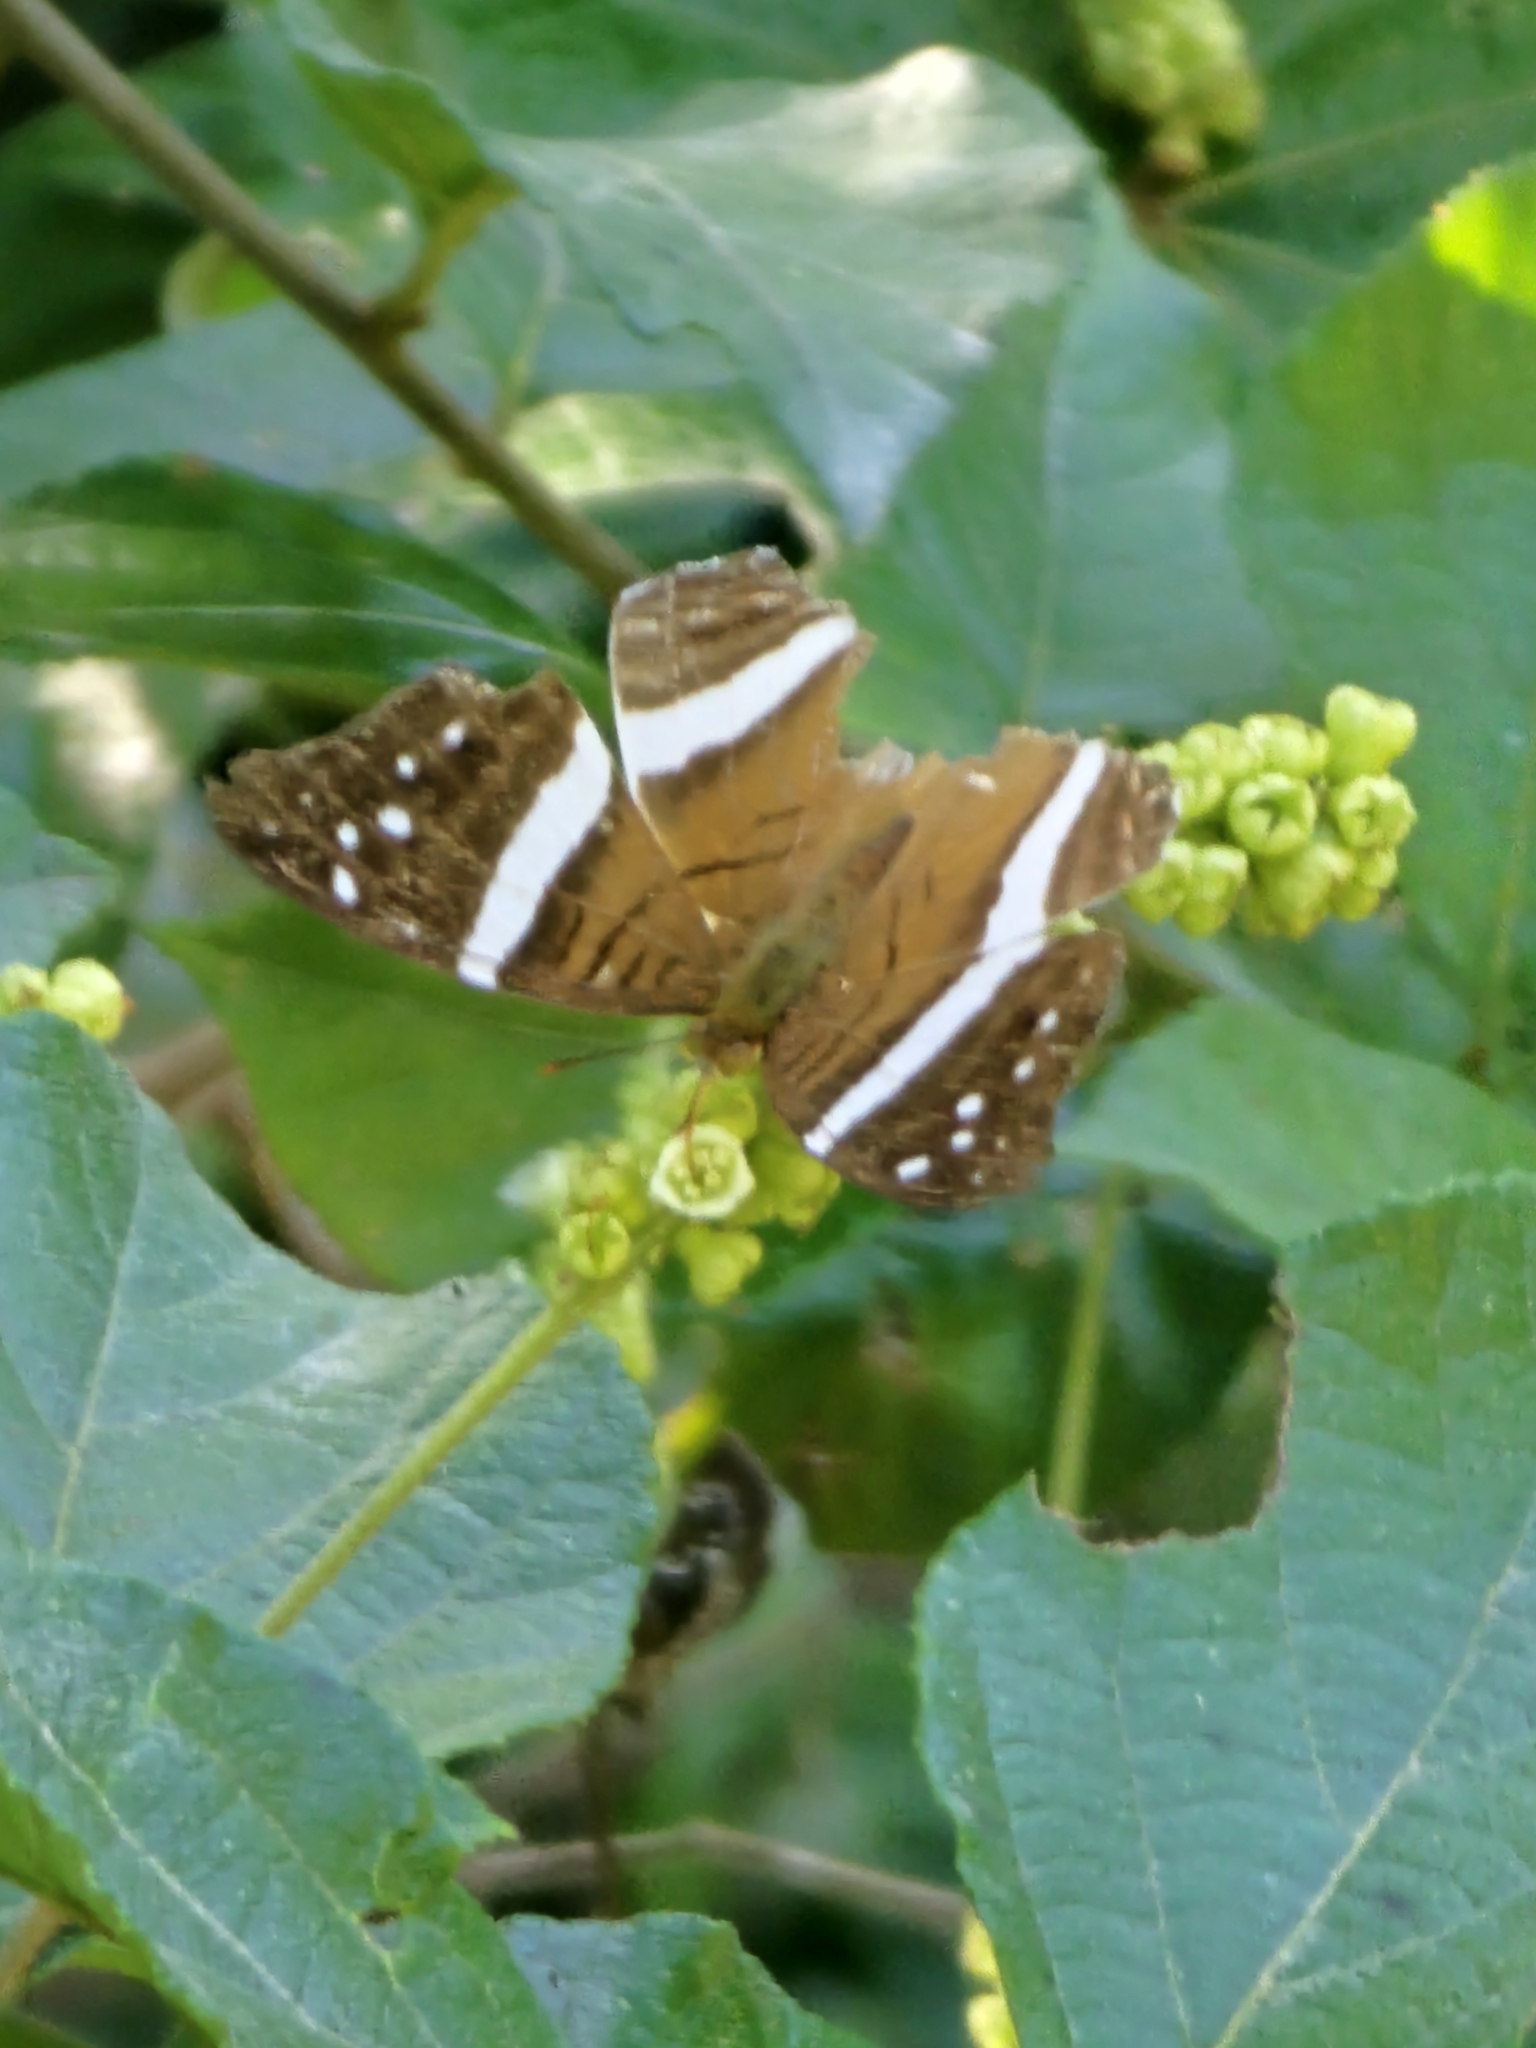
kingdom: Animalia
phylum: Arthropoda
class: Insecta
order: Lepidoptera
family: Nymphalidae
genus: Marpesia
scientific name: Marpesia crethon
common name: Crethon daggerwing
